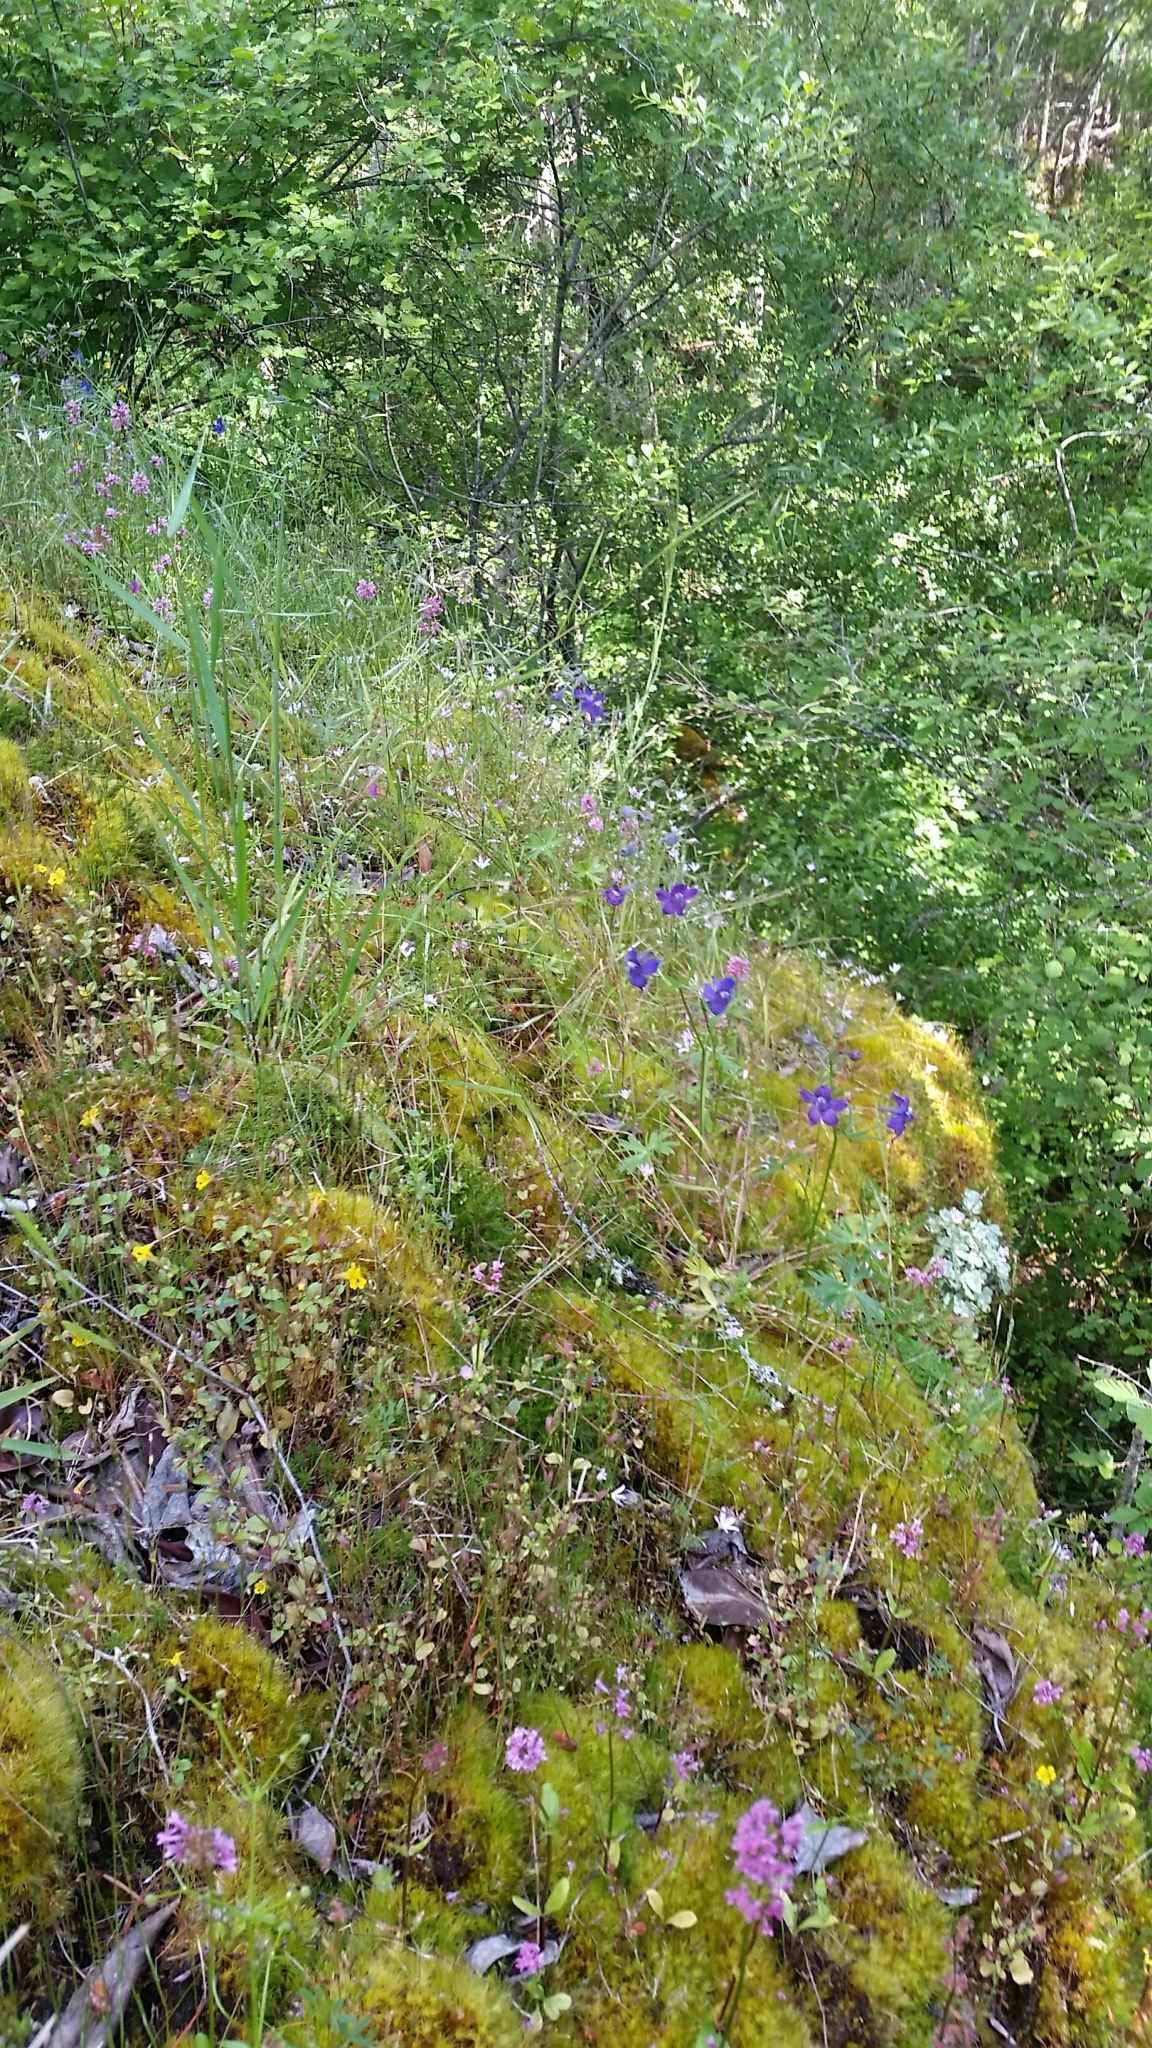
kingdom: Plantae
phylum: Tracheophyta
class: Magnoliopsida
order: Ranunculales
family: Ranunculaceae
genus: Delphinium
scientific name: Delphinium menziesii
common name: Menzies's larkspur
